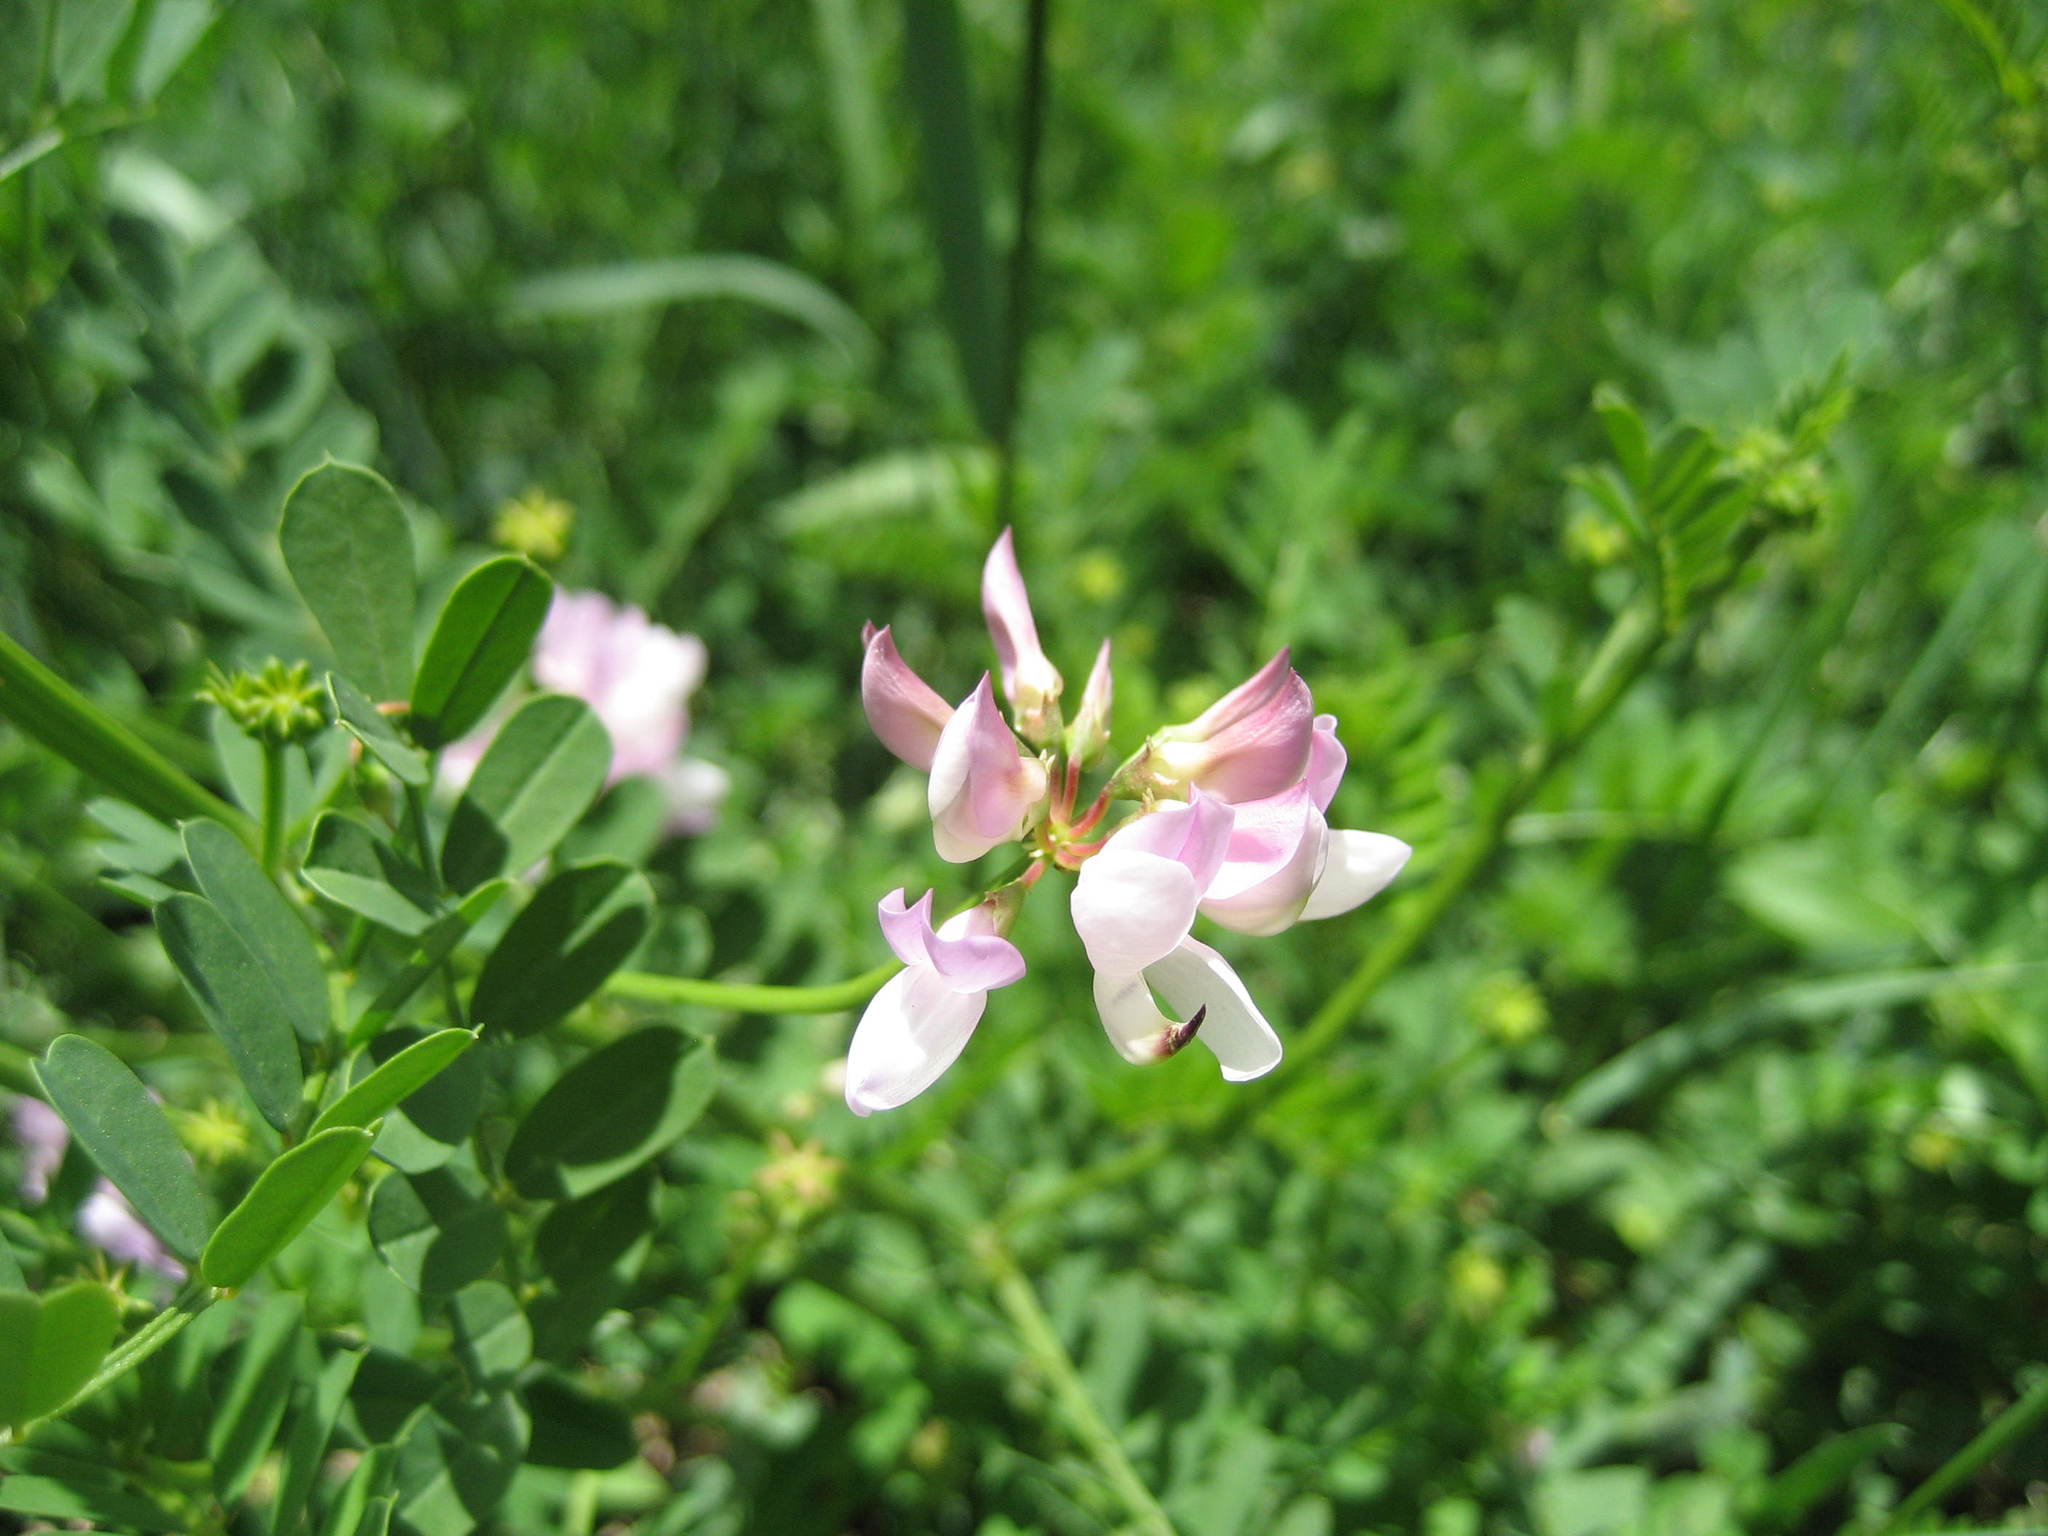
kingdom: Plantae
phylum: Tracheophyta
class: Magnoliopsida
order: Fabales
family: Fabaceae
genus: Coronilla
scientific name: Coronilla varia
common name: Crownvetch
